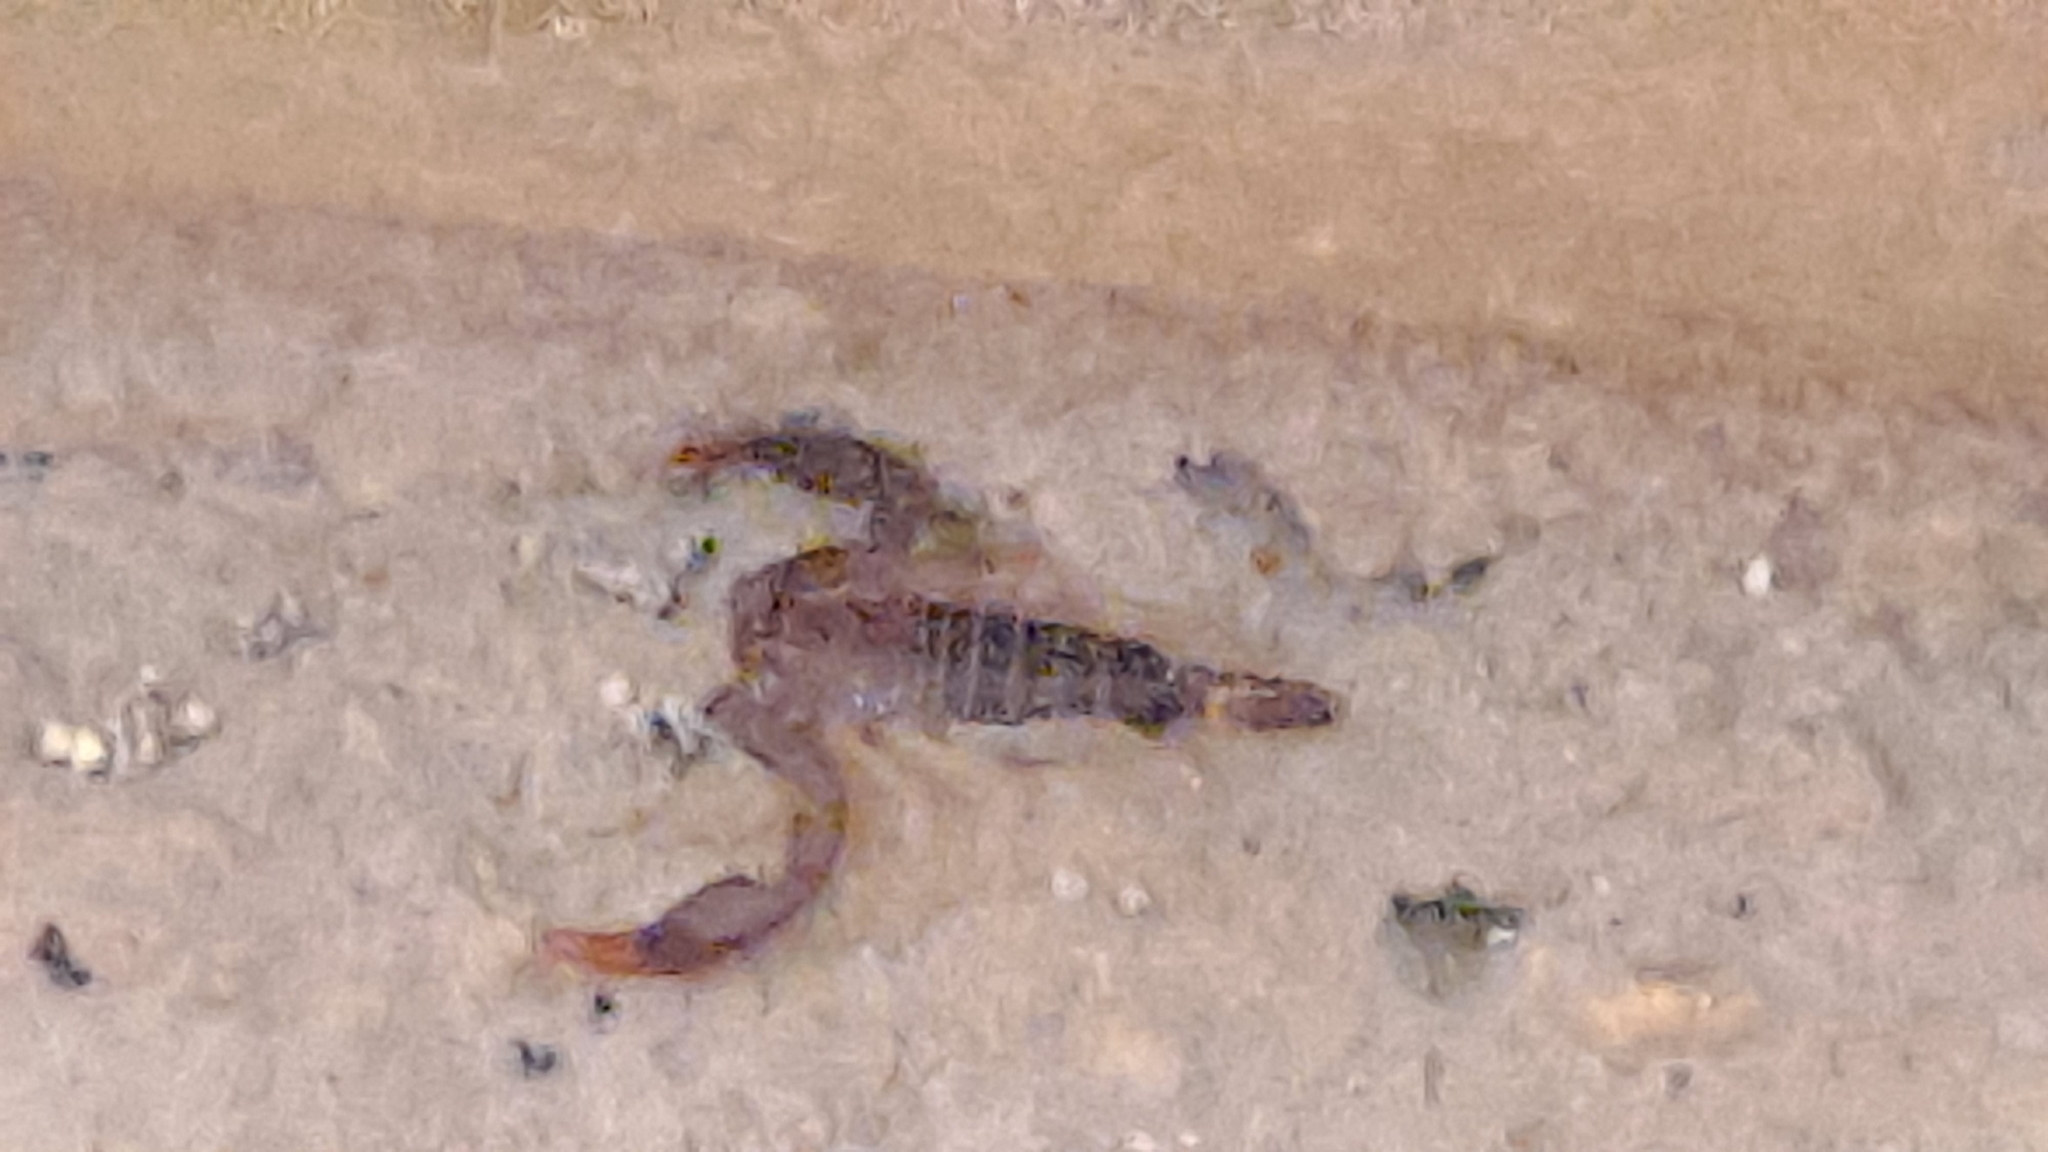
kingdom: Animalia
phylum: Arthropoda
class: Arachnida
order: Scorpiones
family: Euscorpiidae
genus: Euscorpius
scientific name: Euscorpius flavicaudis
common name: European yellow-tailed scorpion
